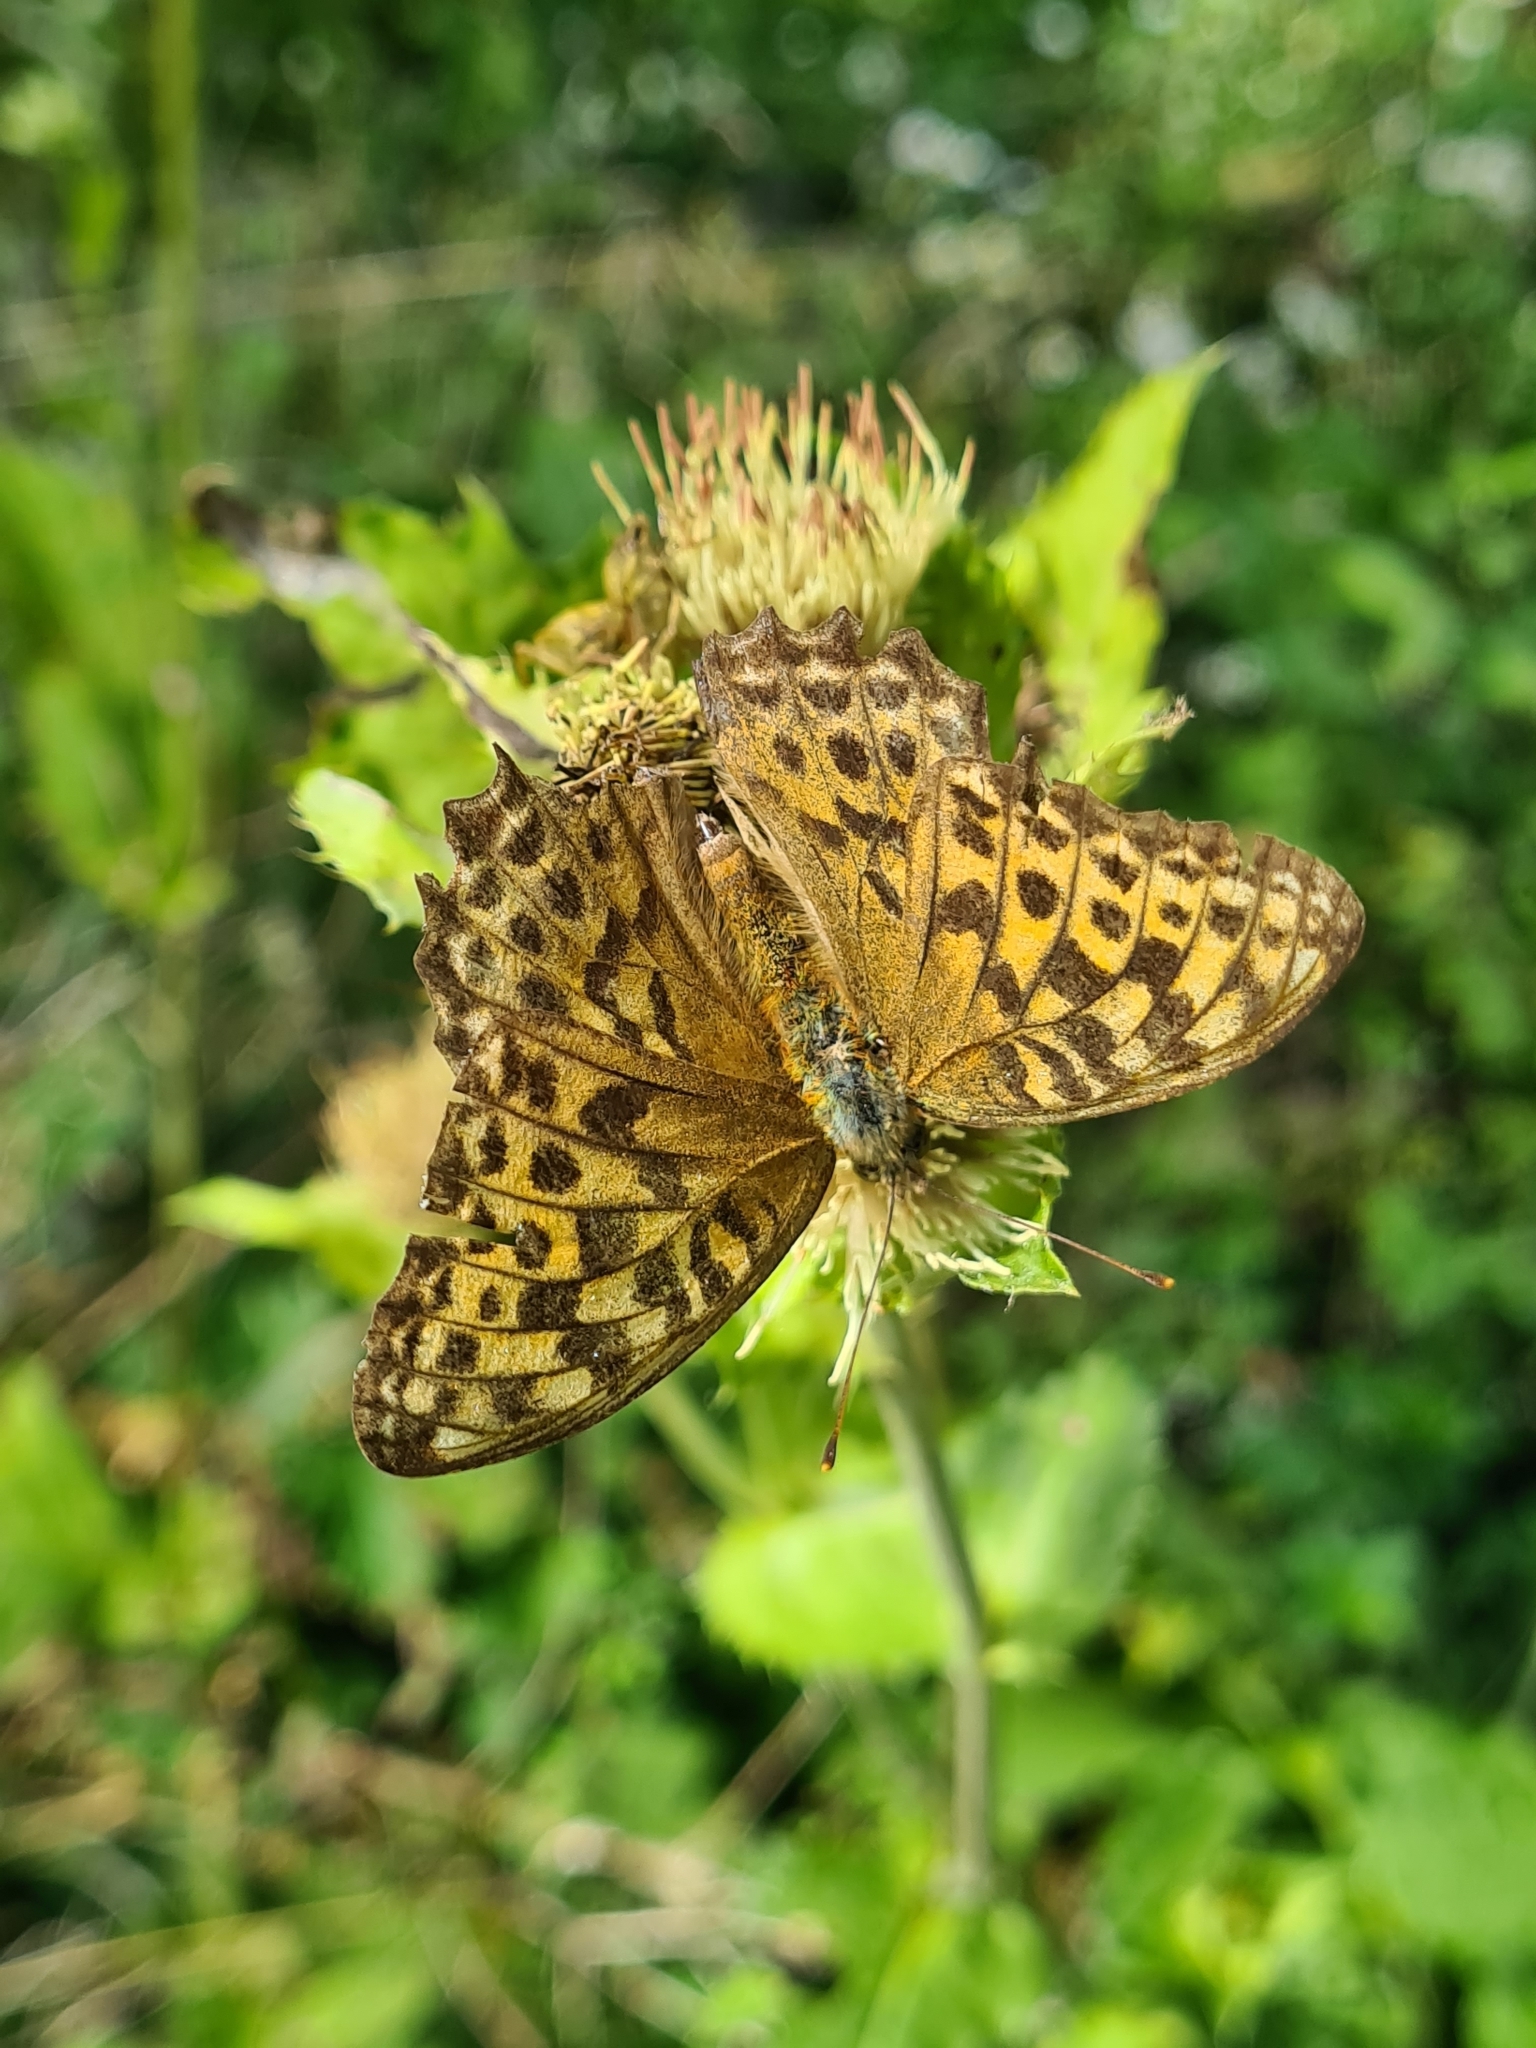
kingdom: Animalia
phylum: Arthropoda
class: Insecta
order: Lepidoptera
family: Nymphalidae
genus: Argynnis
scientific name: Argynnis paphia
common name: Silver-washed fritillary
